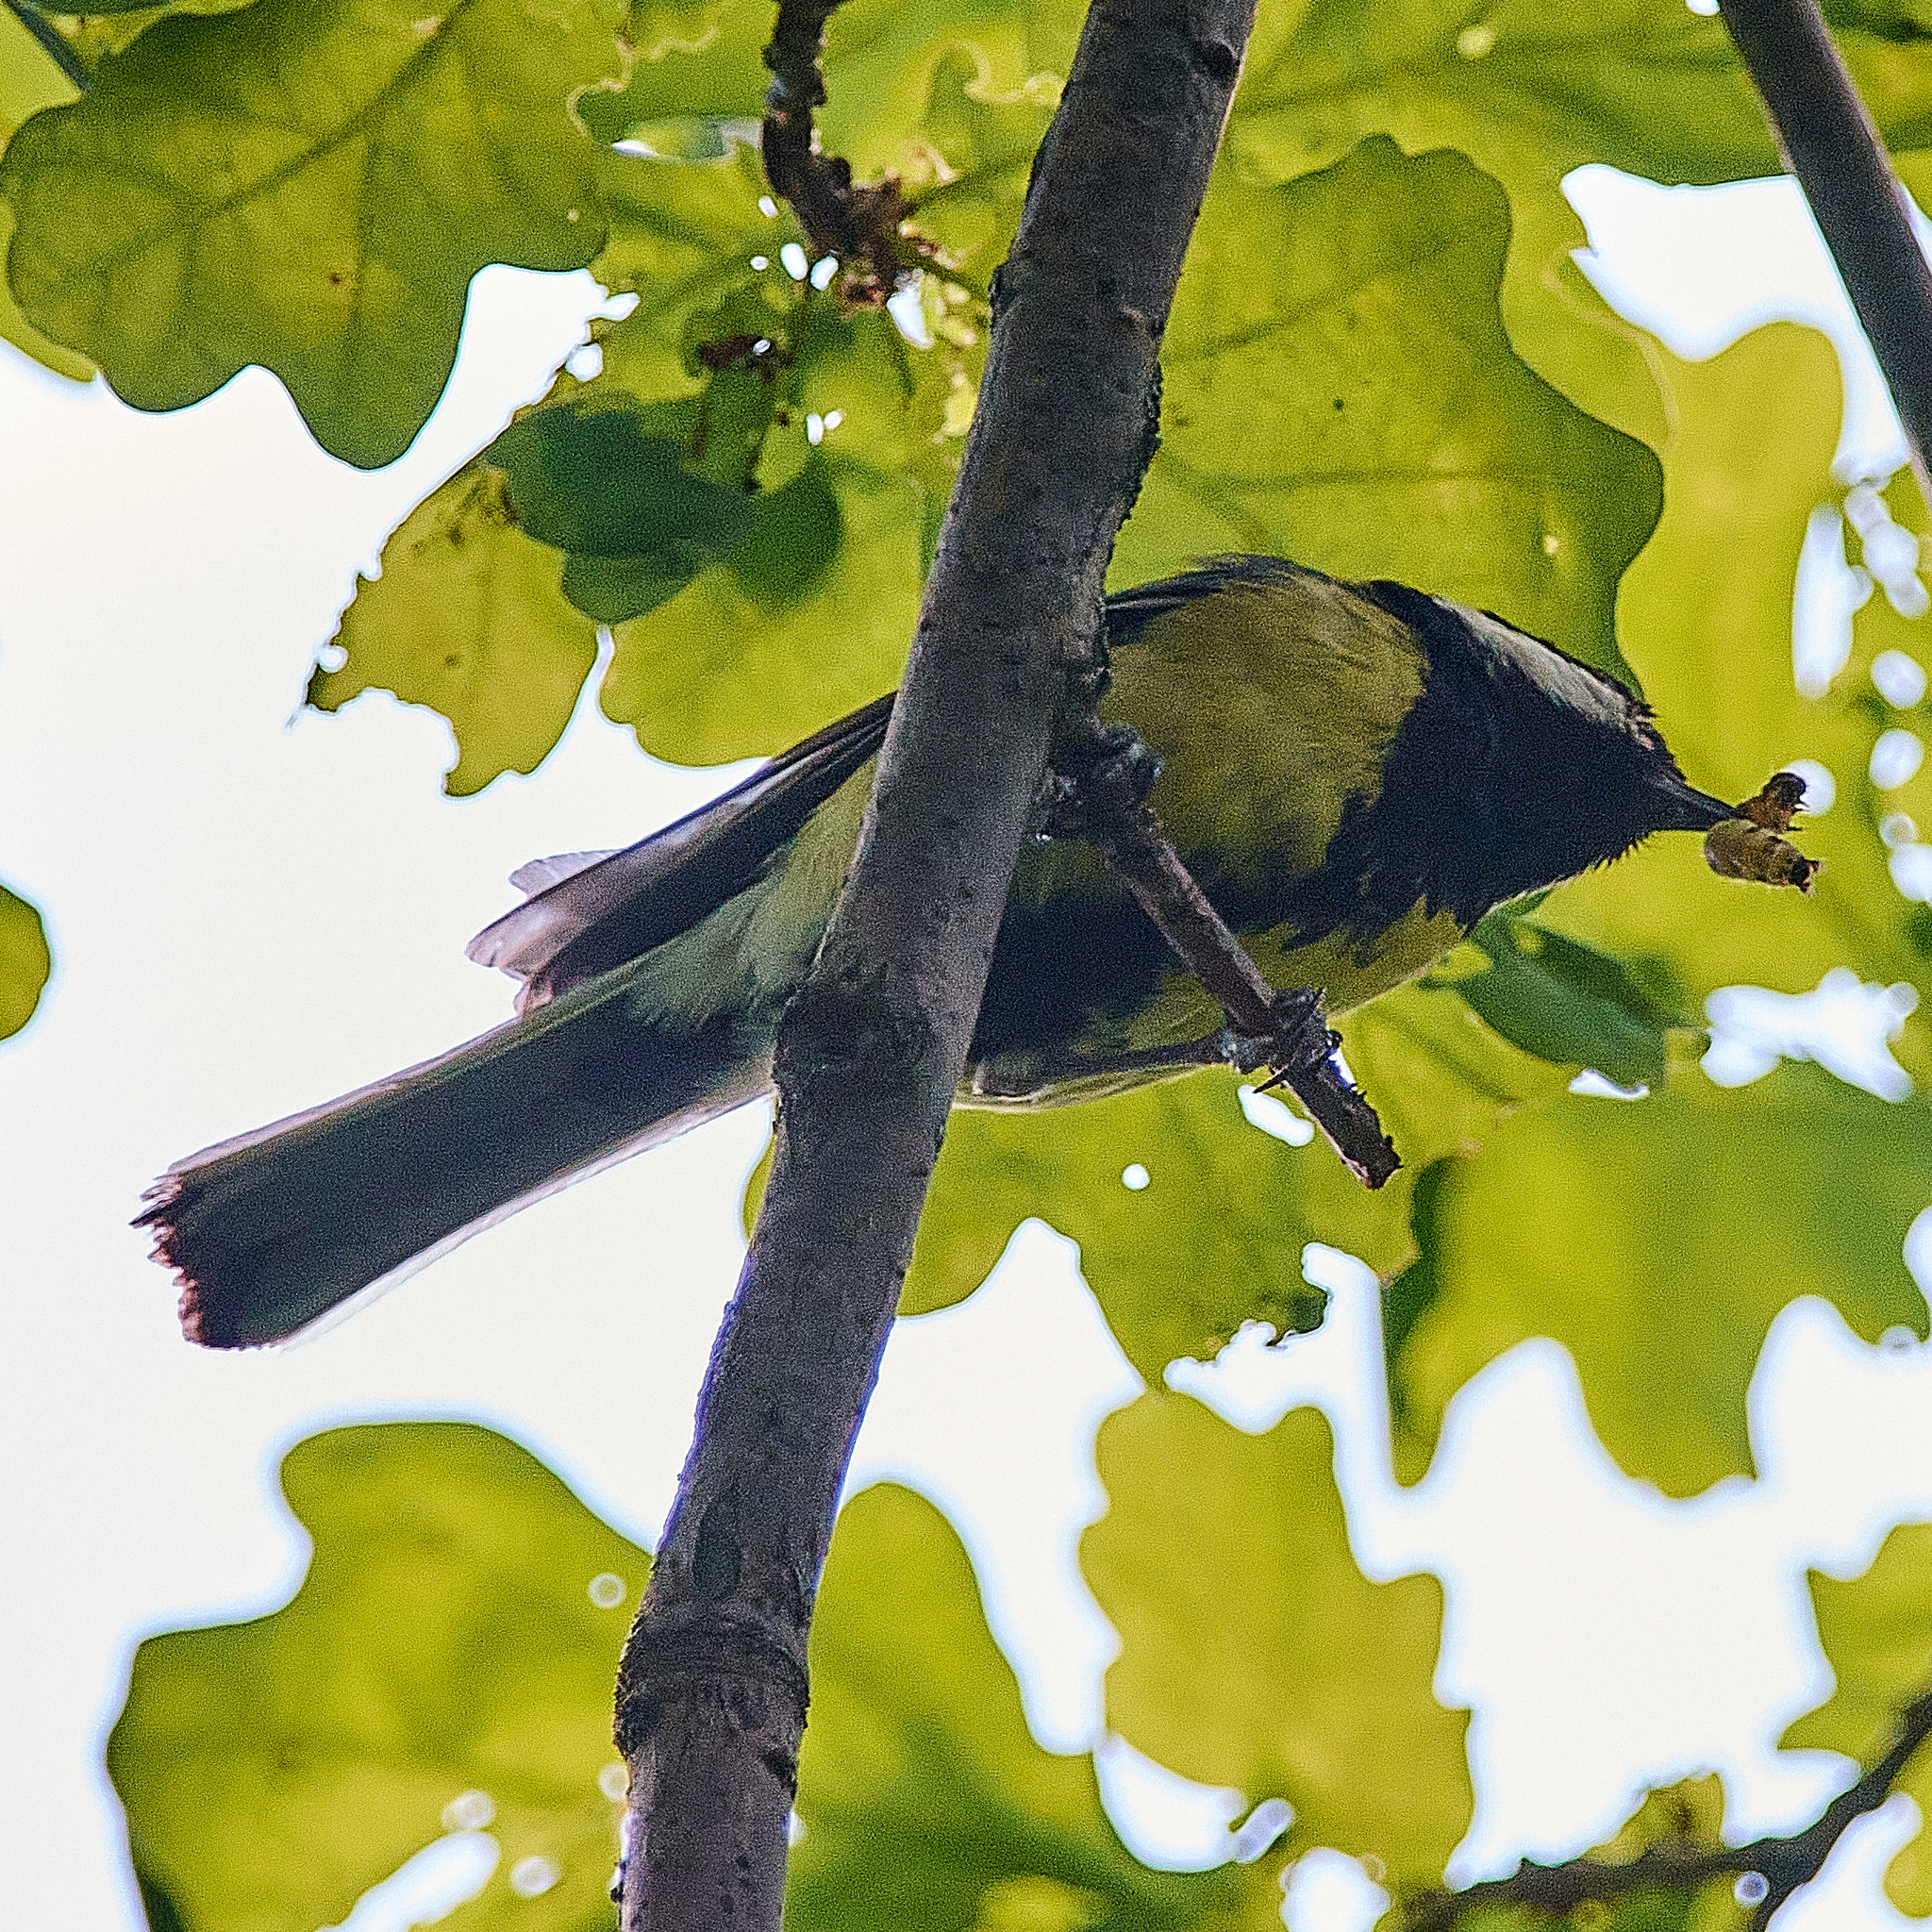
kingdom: Animalia
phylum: Chordata
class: Aves
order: Passeriformes
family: Paridae
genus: Parus
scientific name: Parus major
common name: Great tit
